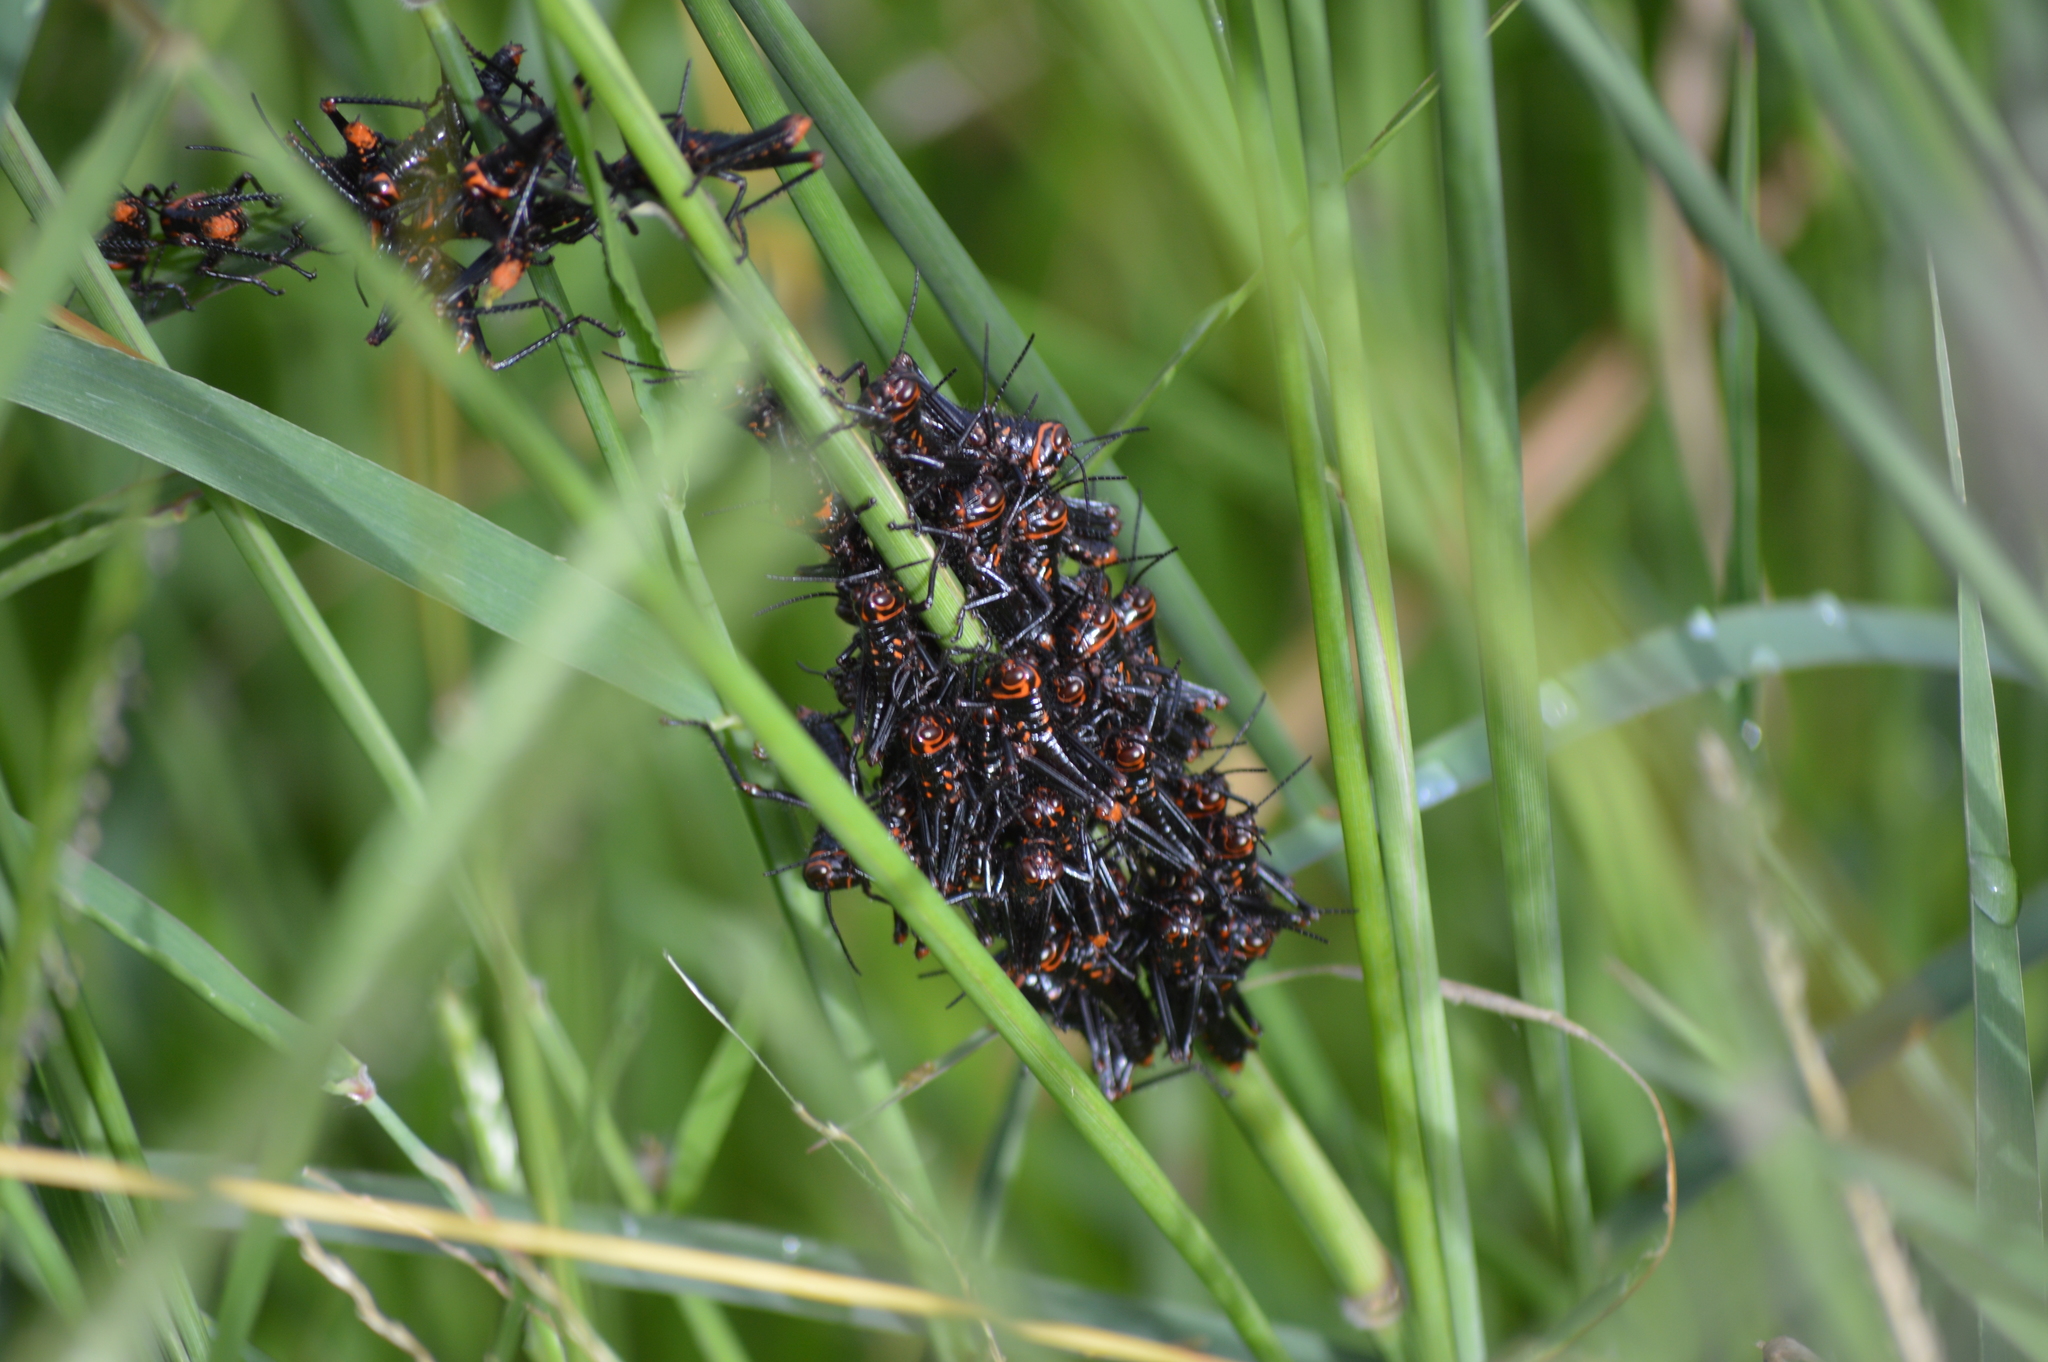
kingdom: Animalia
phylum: Arthropoda
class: Insecta
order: Orthoptera
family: Romaleidae
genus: Tropidacris
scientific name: Tropidacris collaris
